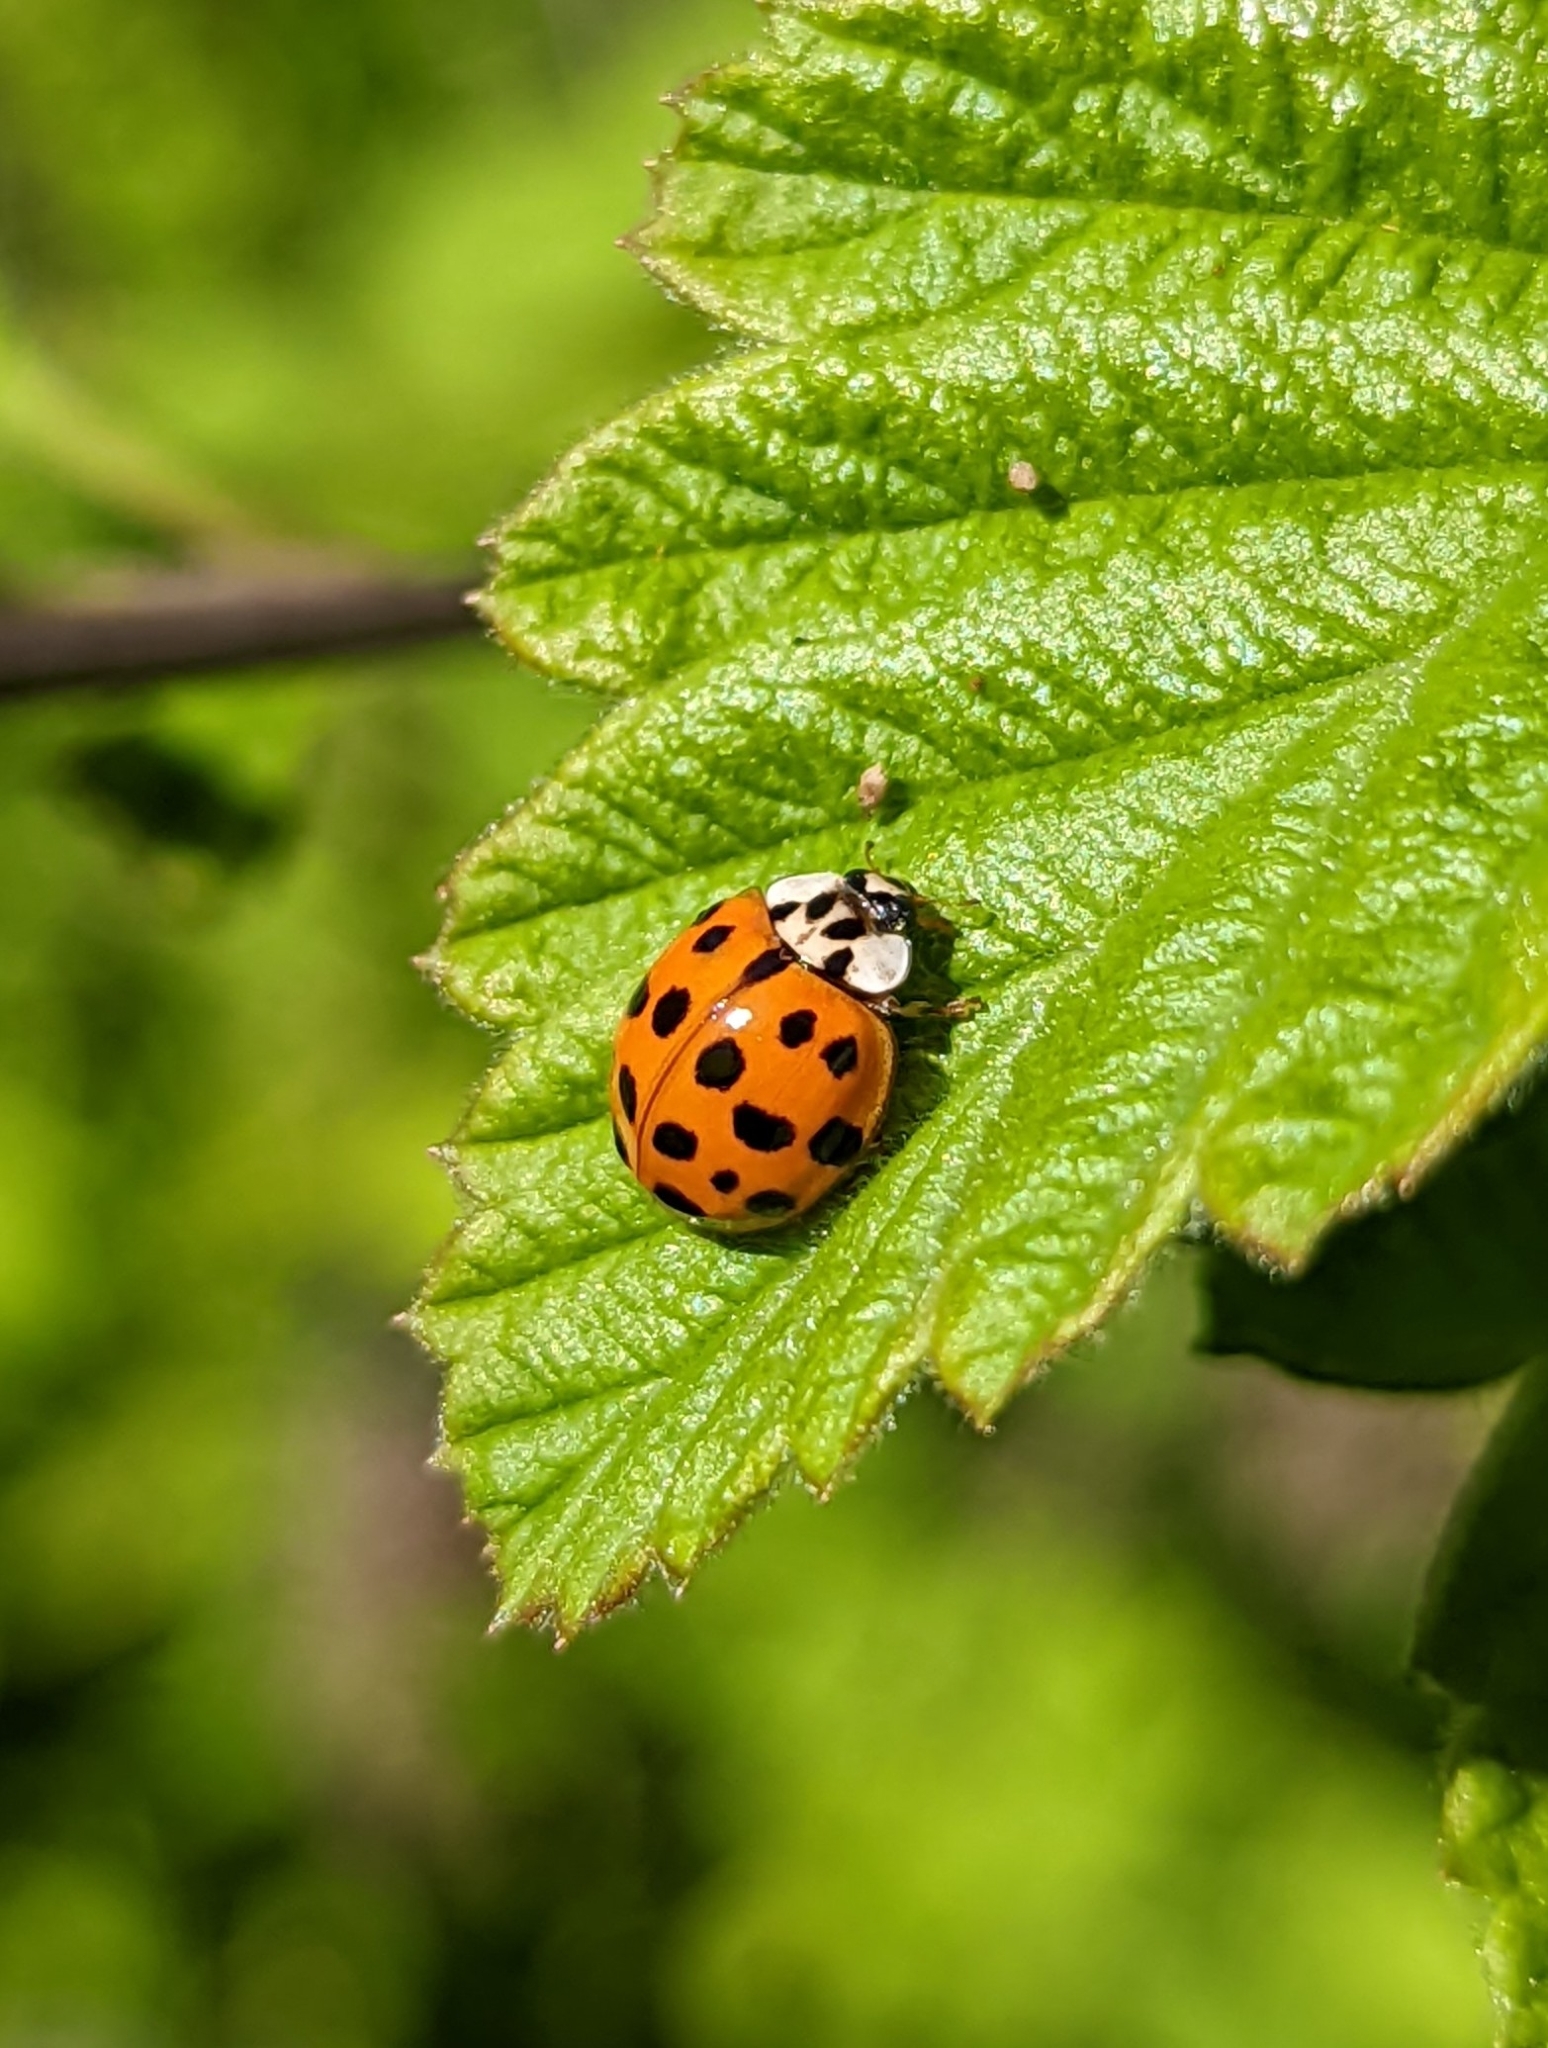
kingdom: Animalia
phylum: Arthropoda
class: Insecta
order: Coleoptera
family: Coccinellidae
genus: Harmonia
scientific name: Harmonia axyridis
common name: Harlequin ladybird
